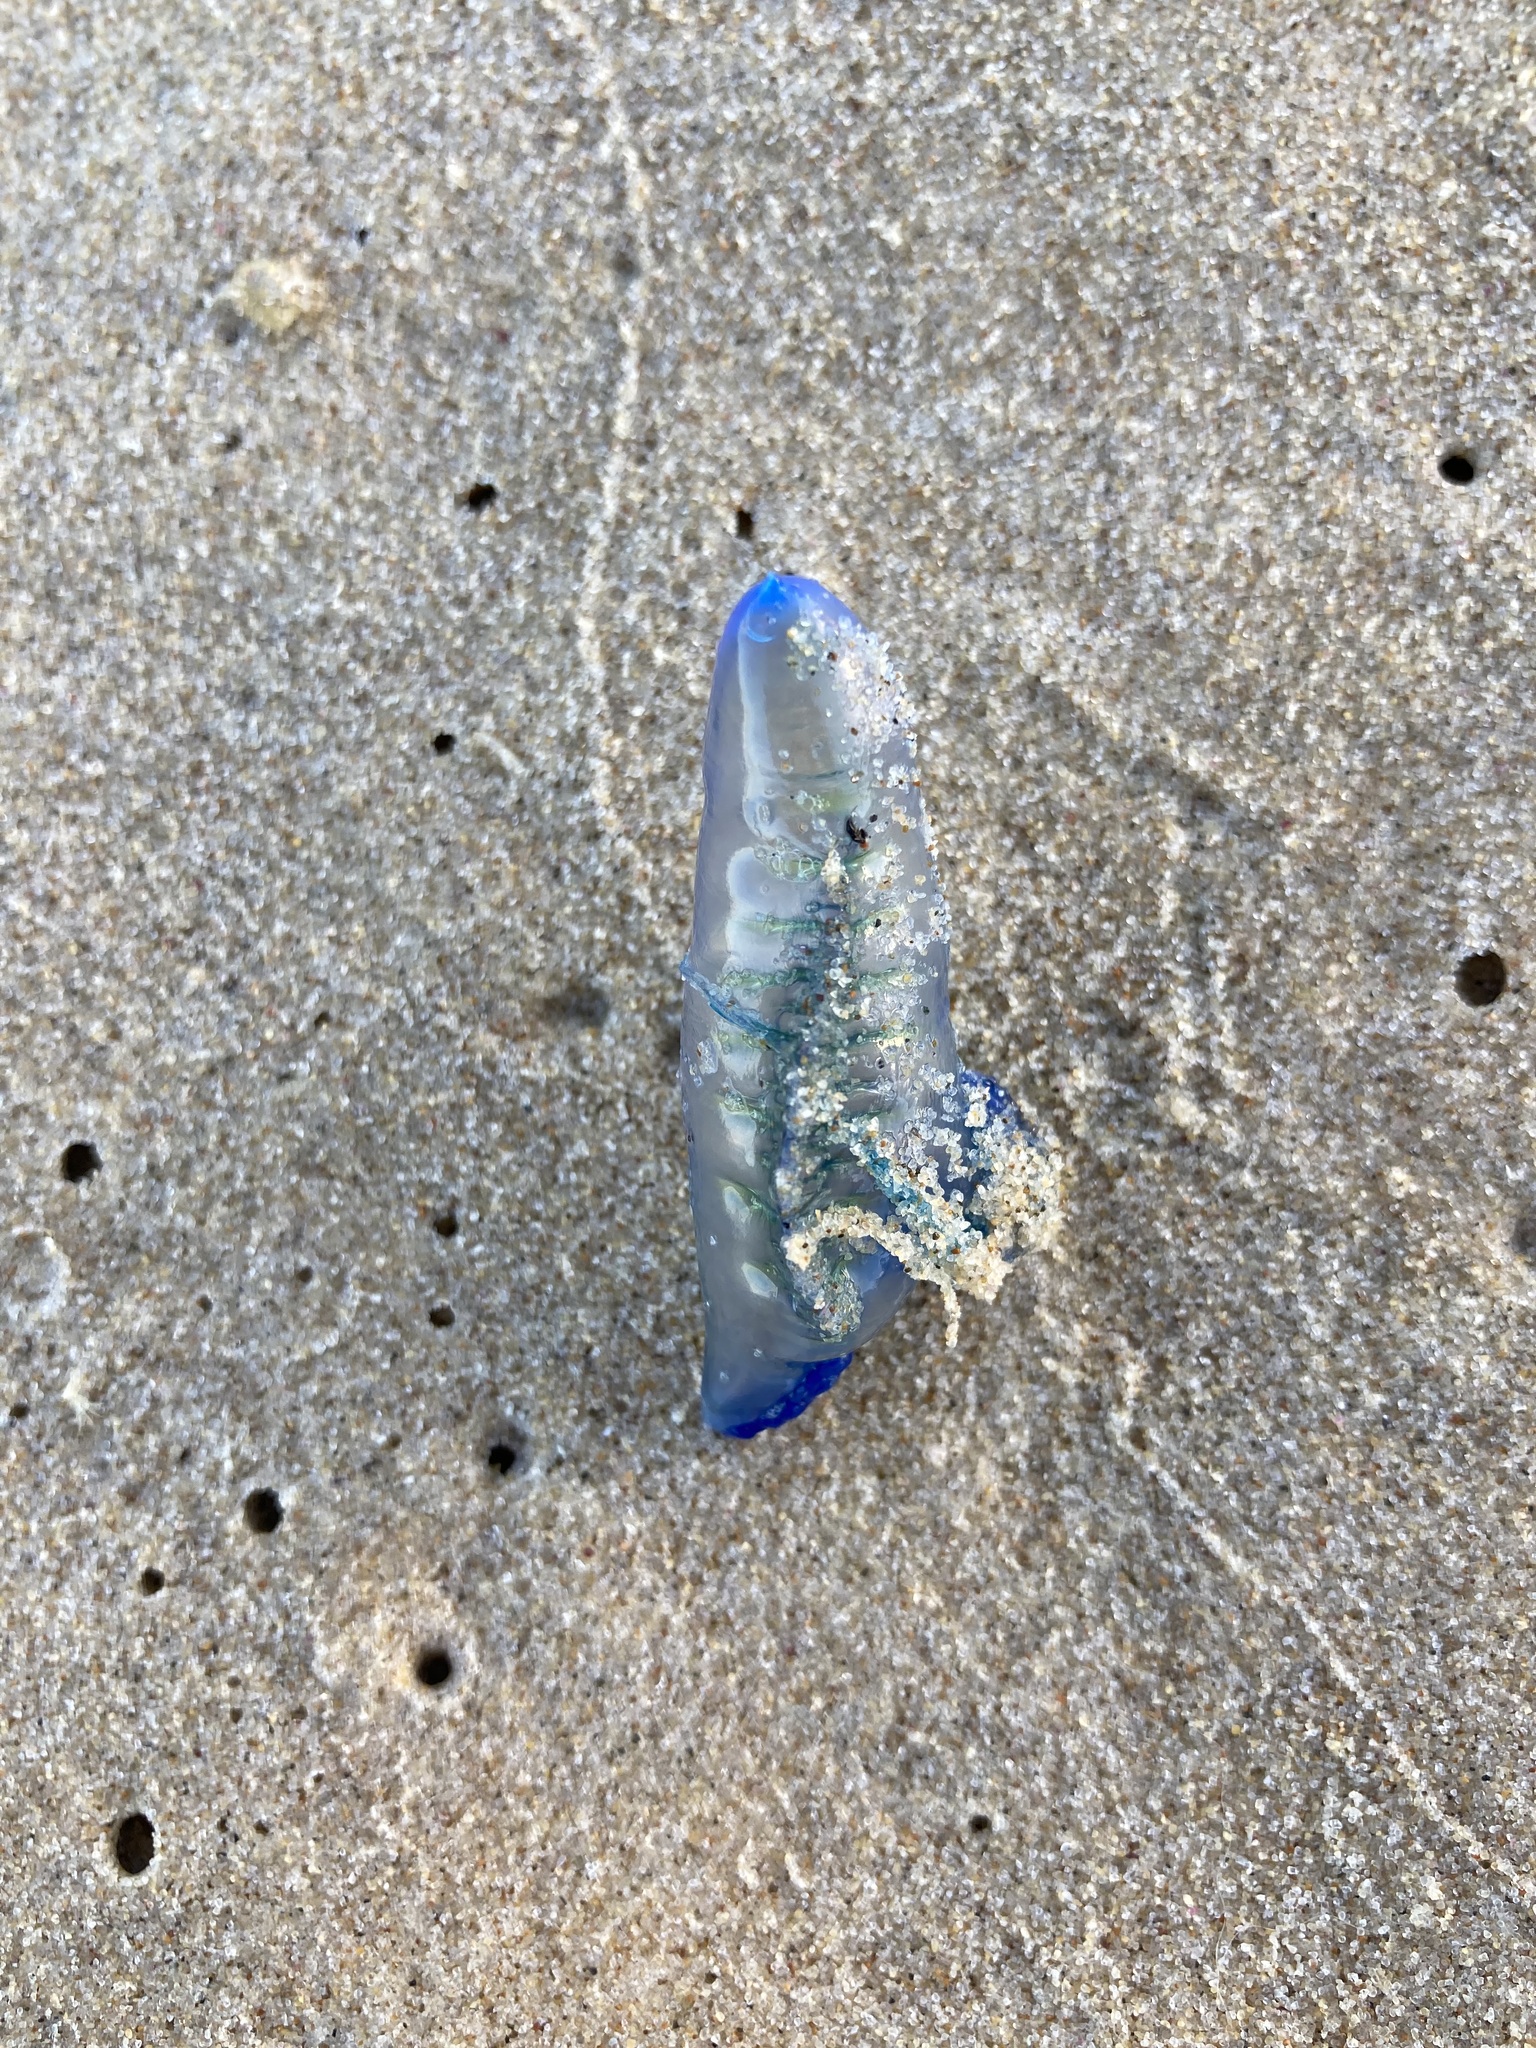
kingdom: Animalia
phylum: Cnidaria
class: Hydrozoa
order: Siphonophorae
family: Physaliidae
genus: Physalia
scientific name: Physalia physalis
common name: Portuguese man-of-war
